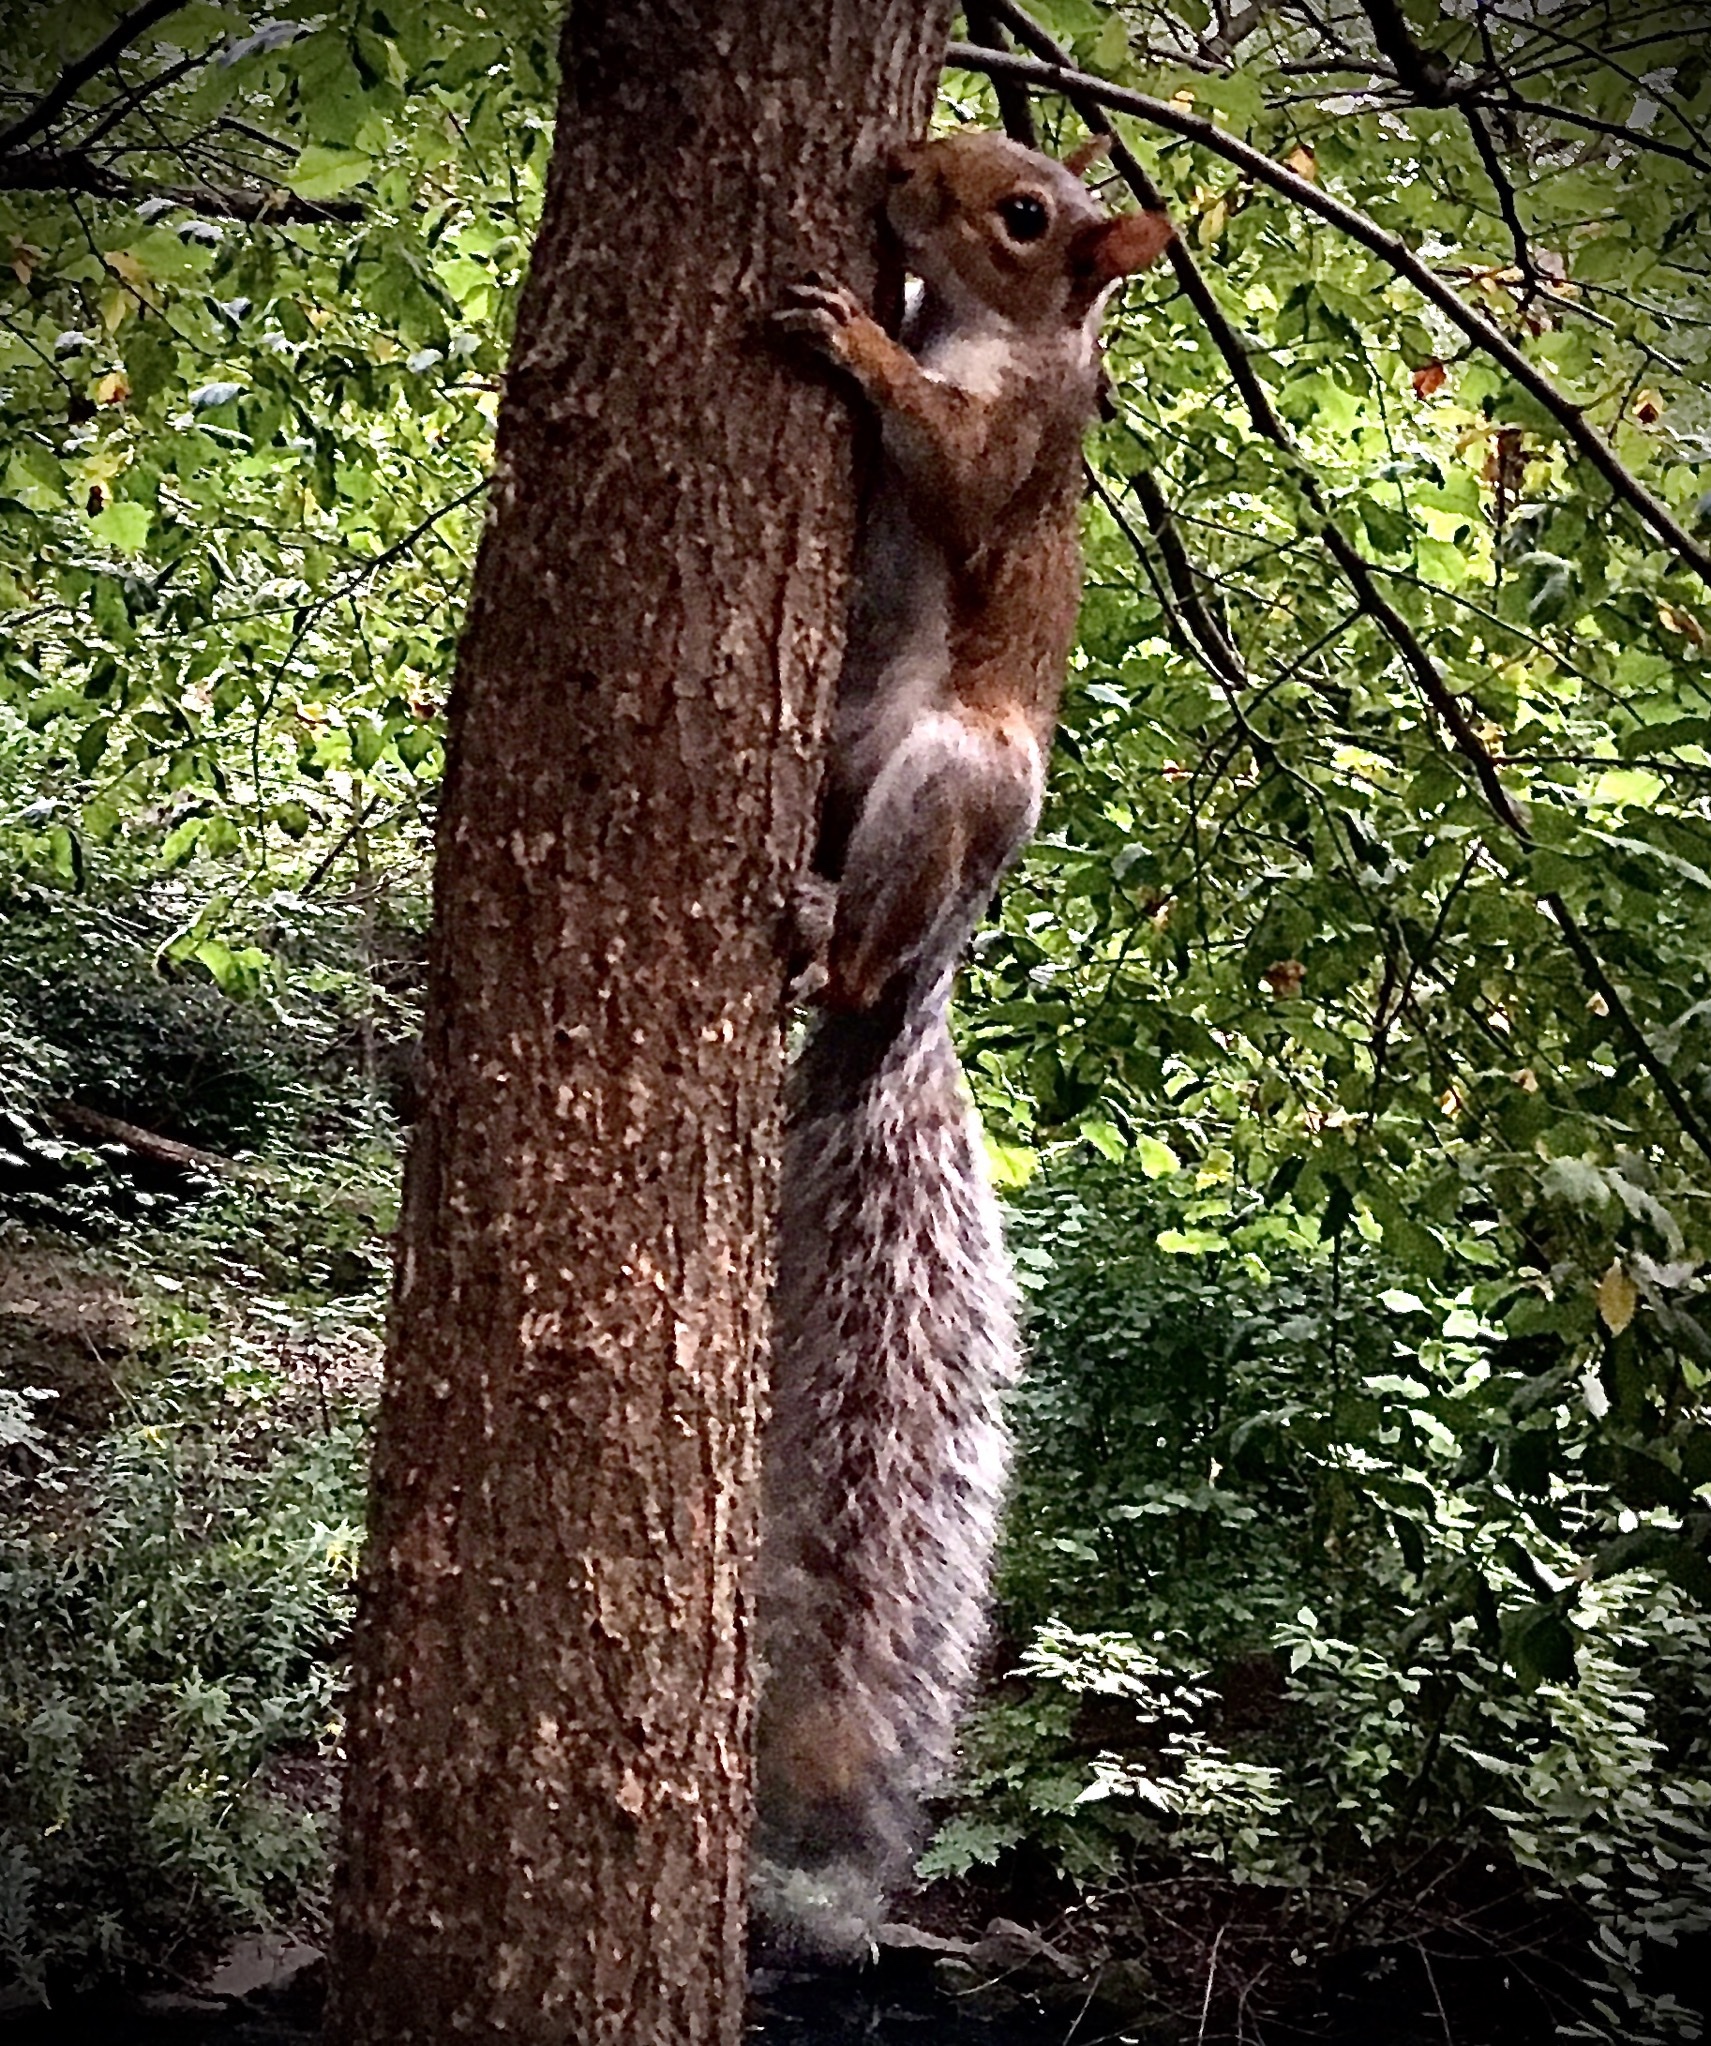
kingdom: Animalia
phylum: Chordata
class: Mammalia
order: Rodentia
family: Sciuridae
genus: Sciurus
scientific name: Sciurus carolinensis
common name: Eastern gray squirrel
